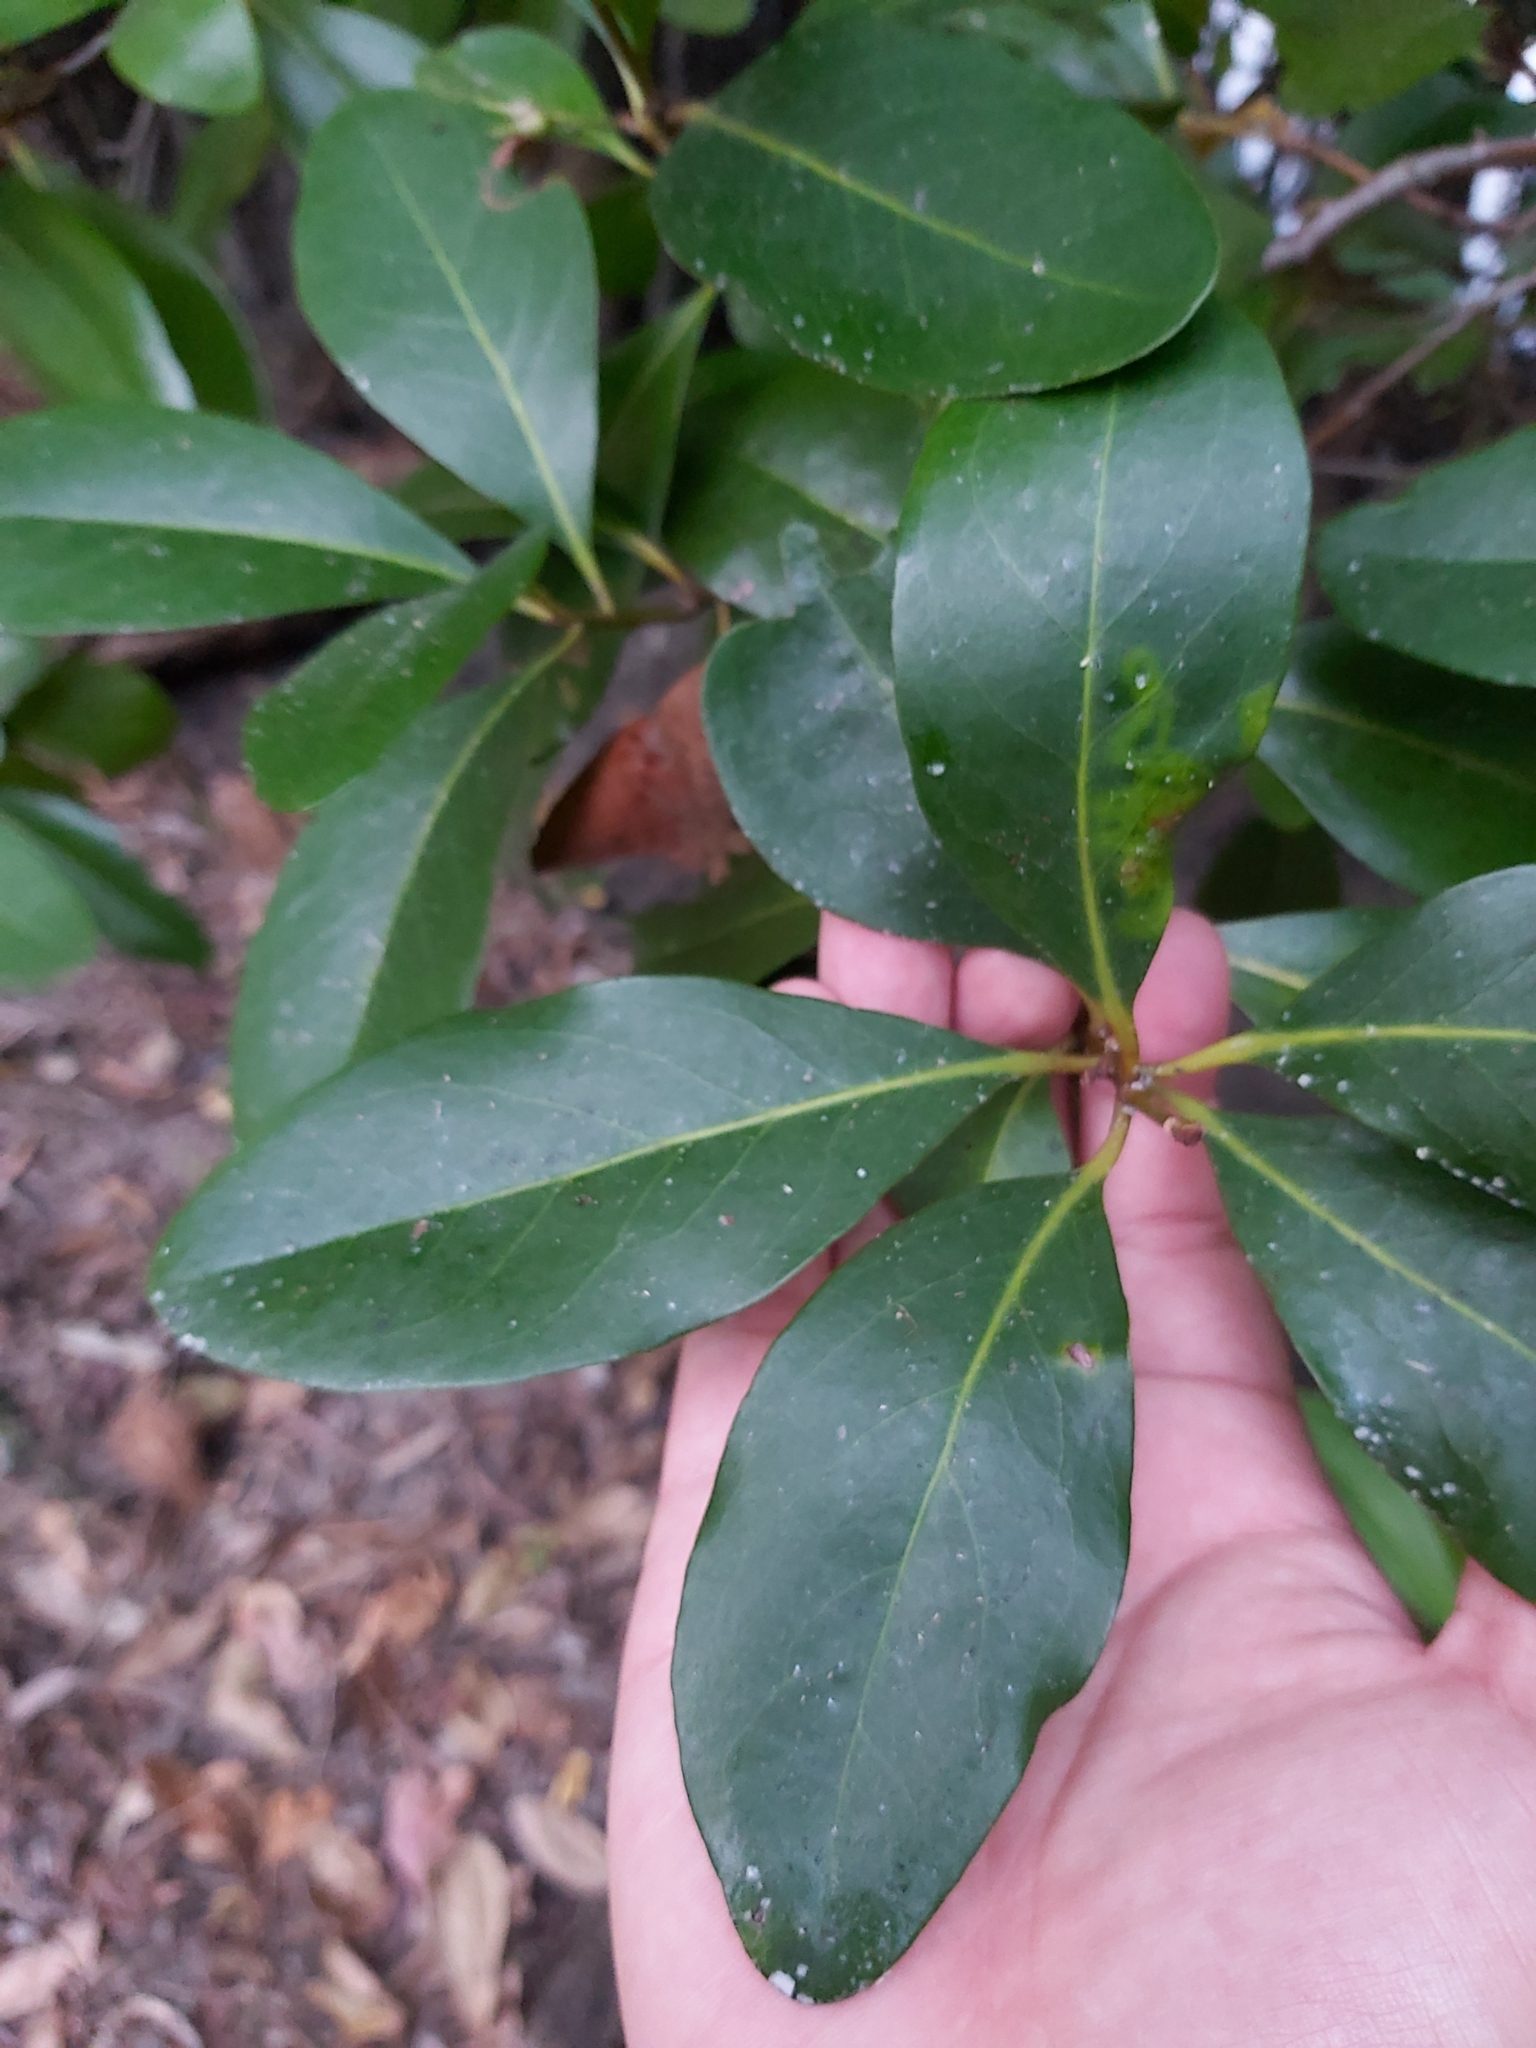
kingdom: Plantae
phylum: Tracheophyta
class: Magnoliopsida
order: Ericales
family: Primulaceae
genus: Aegiceras
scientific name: Aegiceras corniculatum
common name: River mangrove
